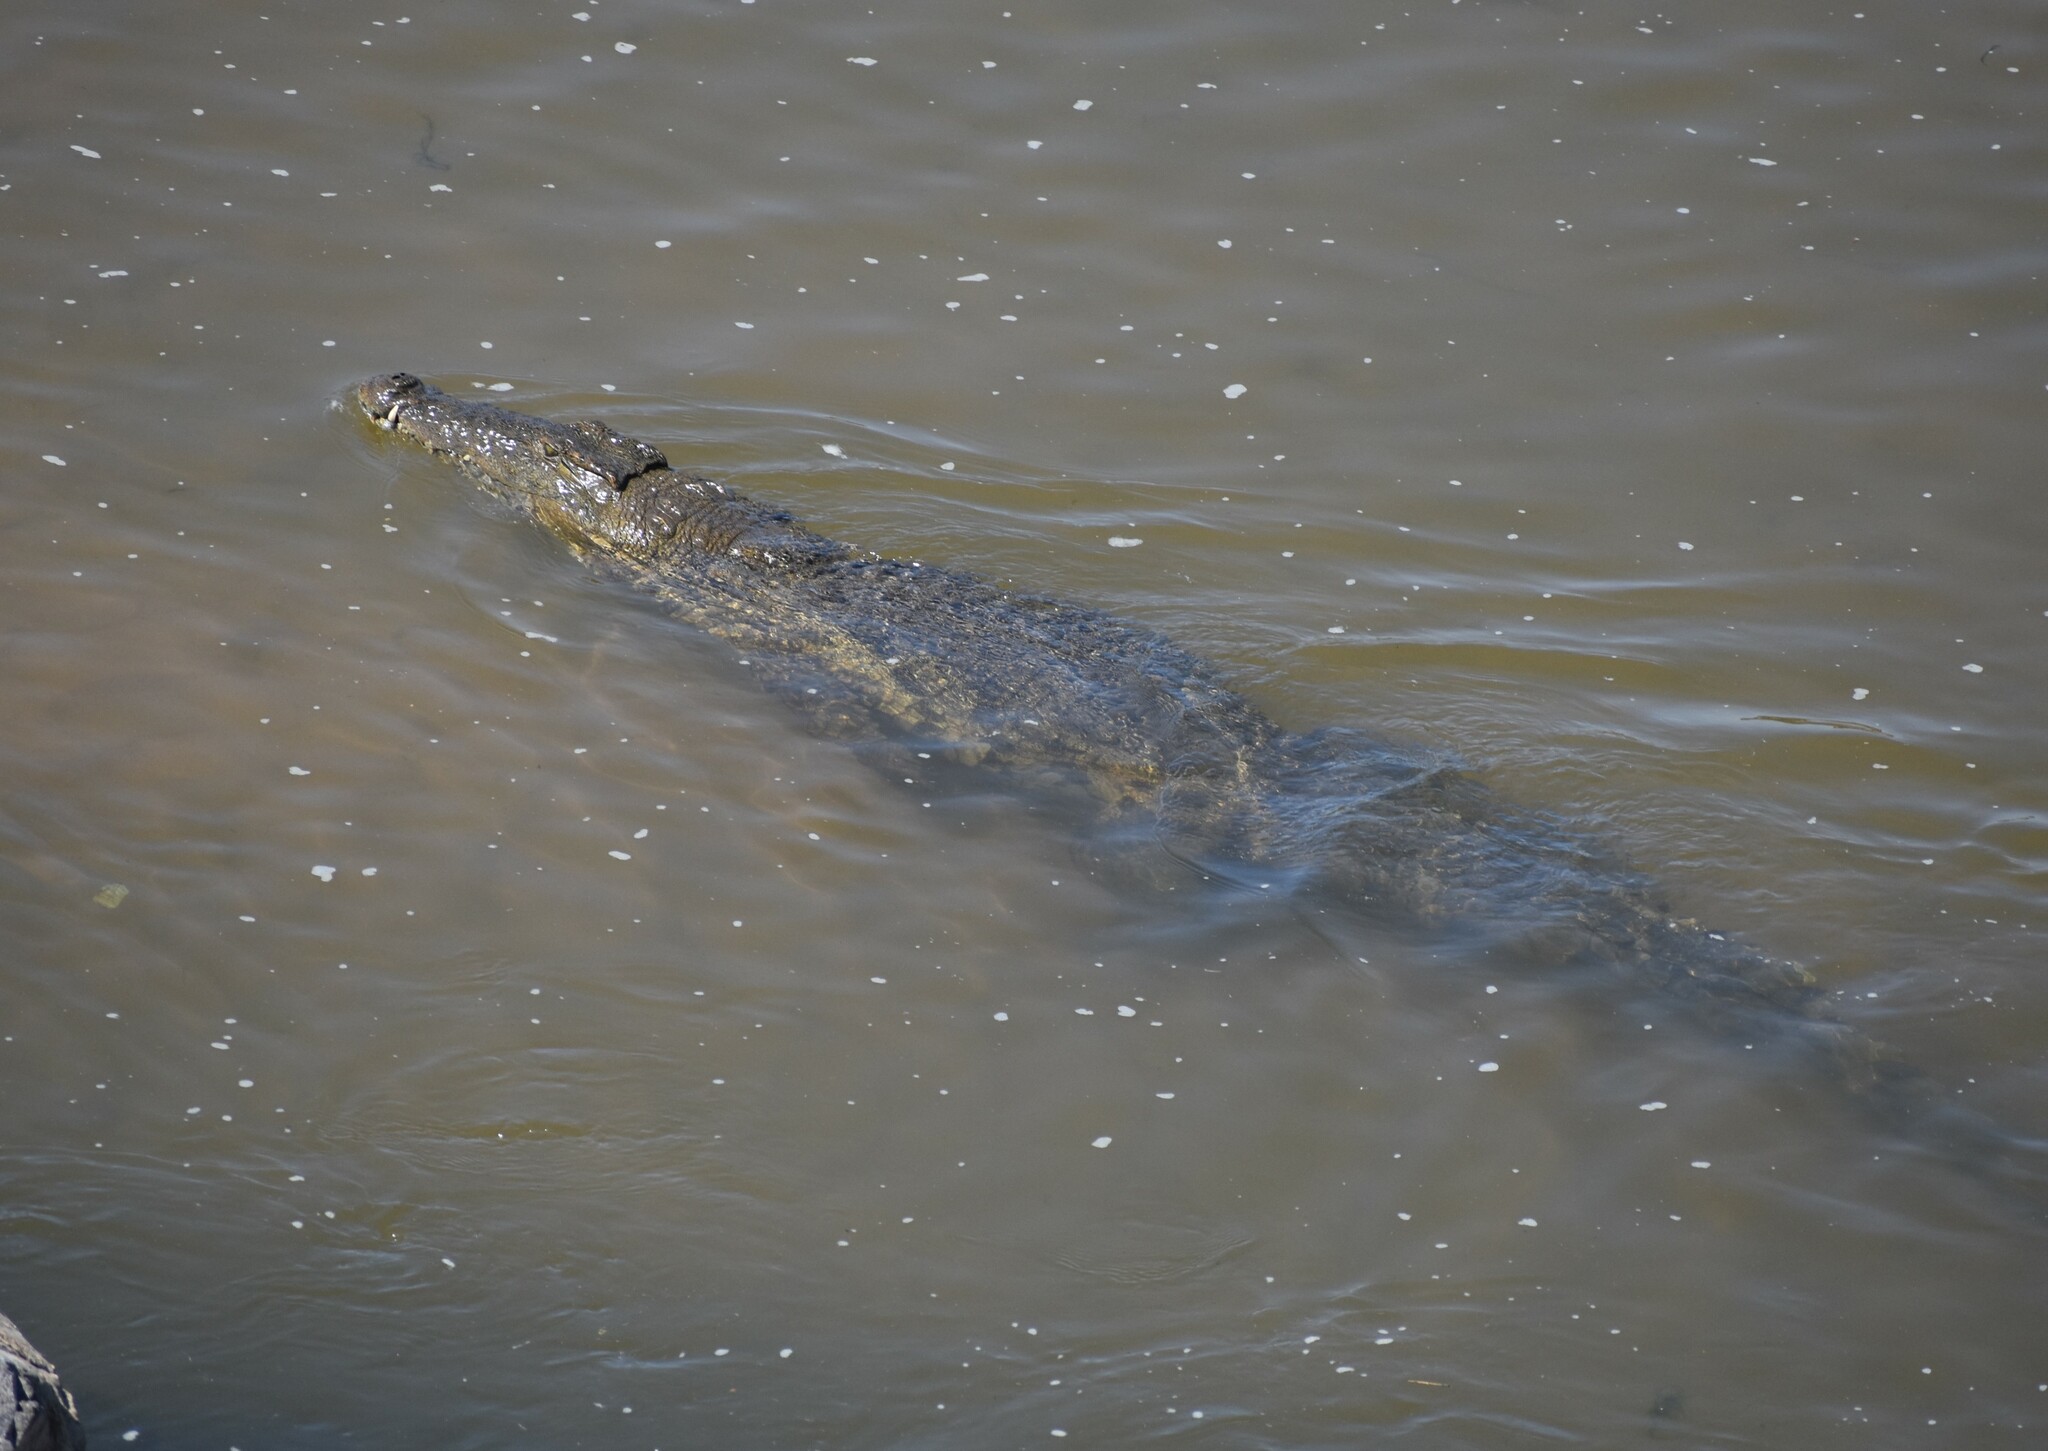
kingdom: Animalia
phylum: Chordata
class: Crocodylia
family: Crocodylidae
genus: Crocodylus
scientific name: Crocodylus niloticus
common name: Nile crocodile
